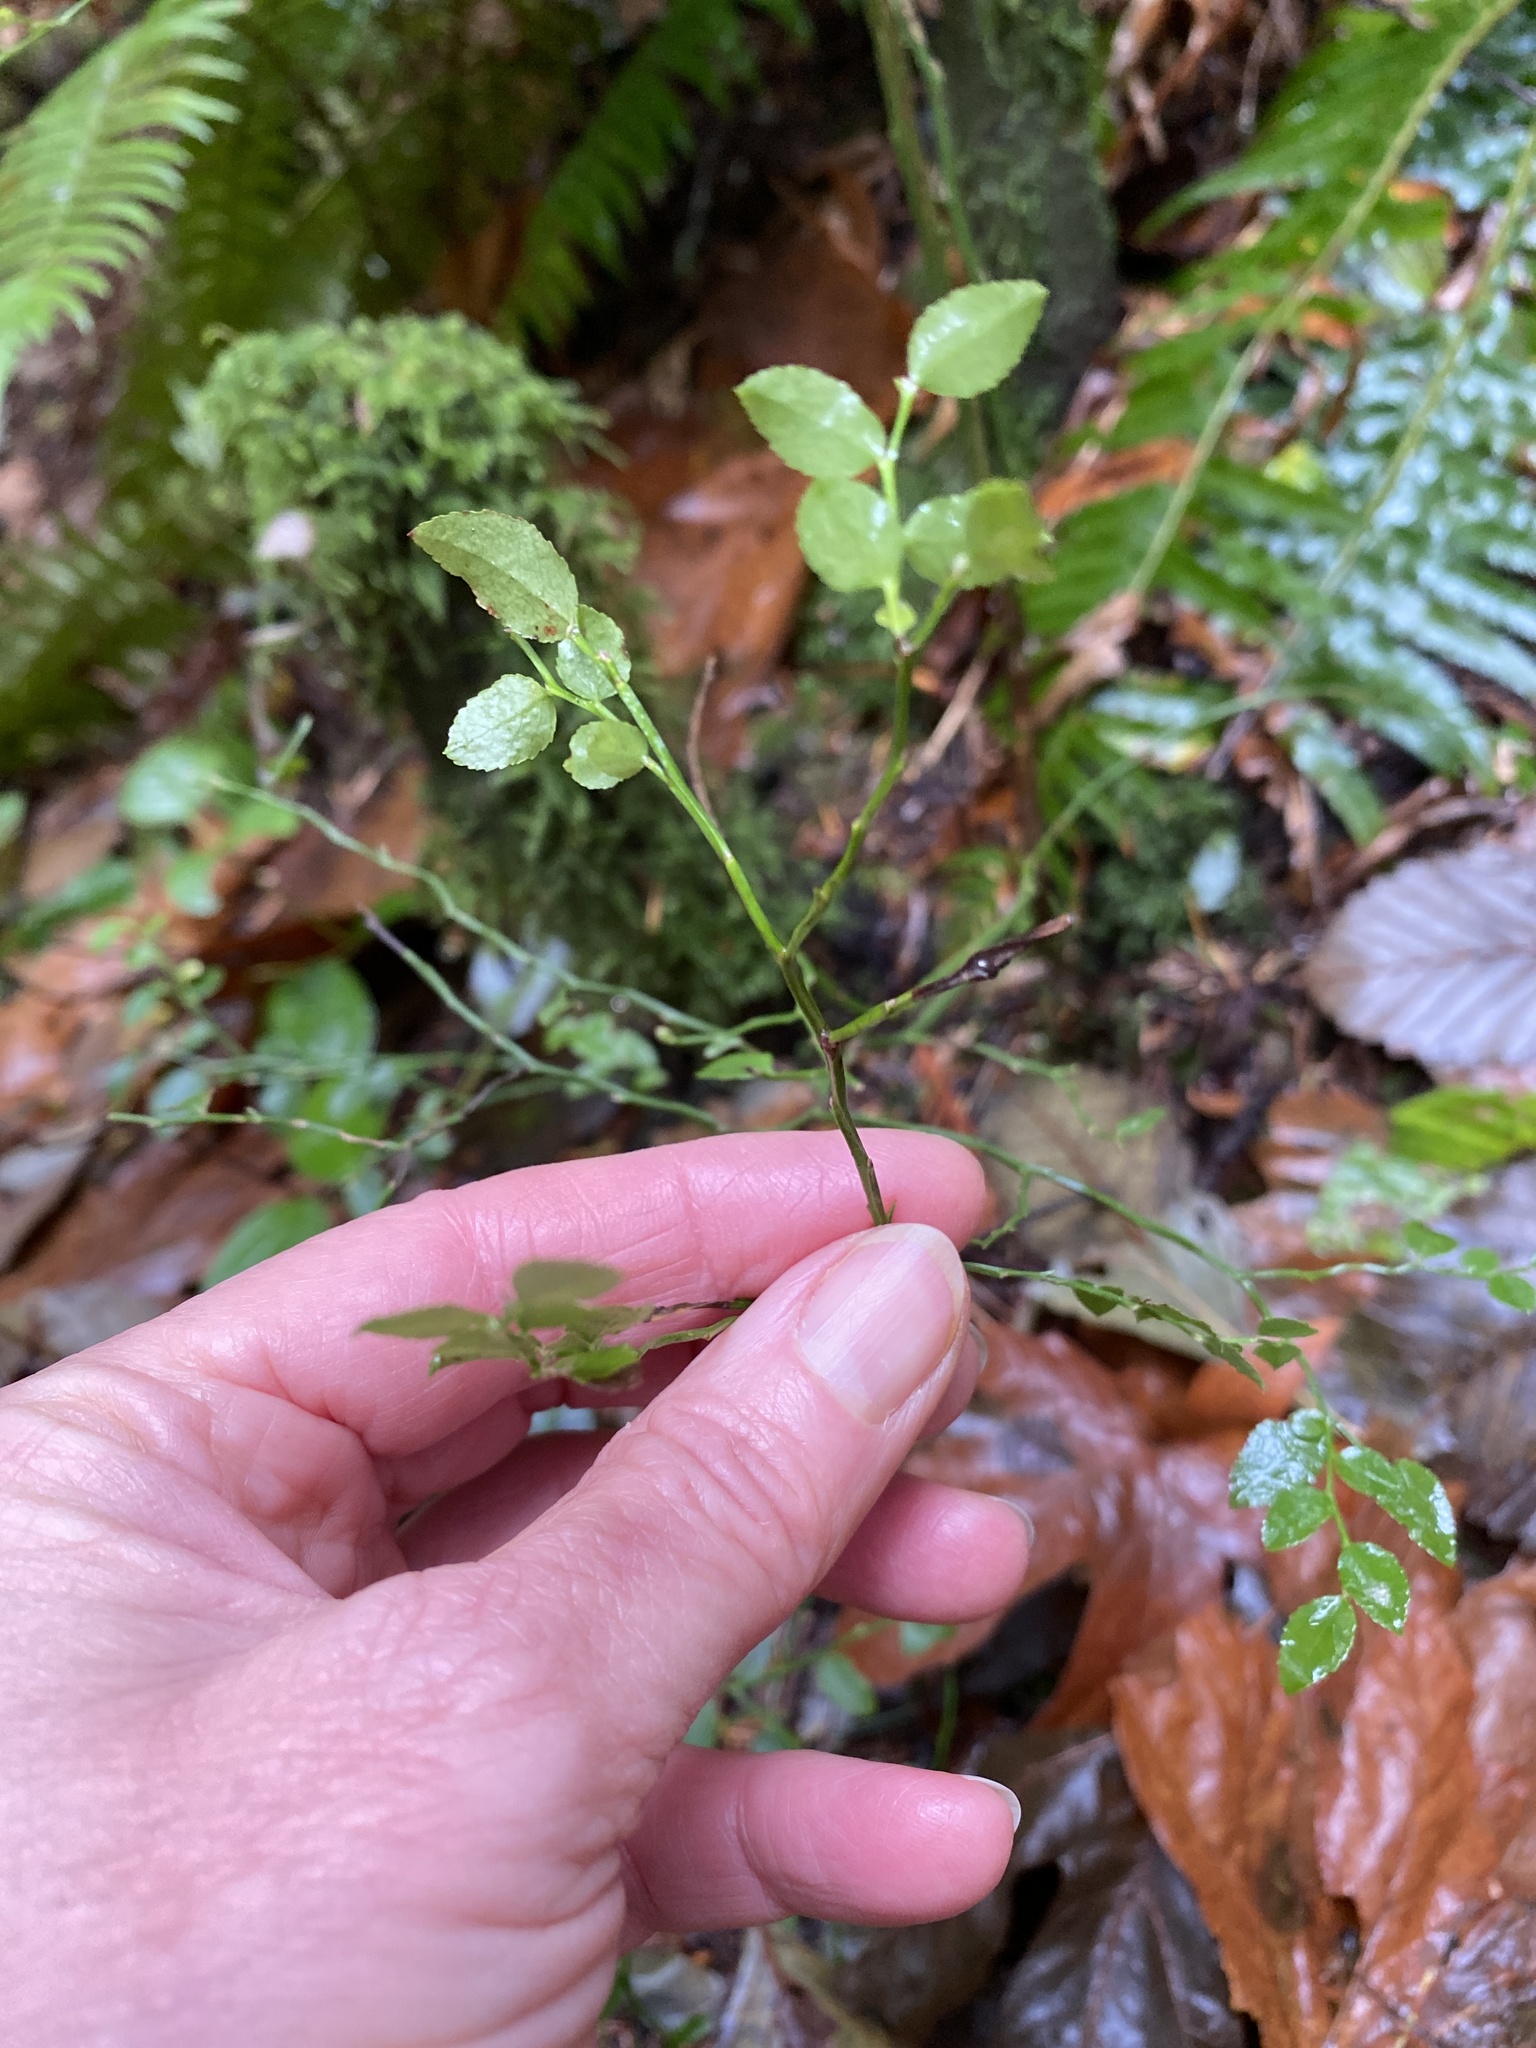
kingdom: Plantae
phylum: Tracheophyta
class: Magnoliopsida
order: Ericales
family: Ericaceae
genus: Vaccinium
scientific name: Vaccinium parvifolium
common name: Red-huckleberry
